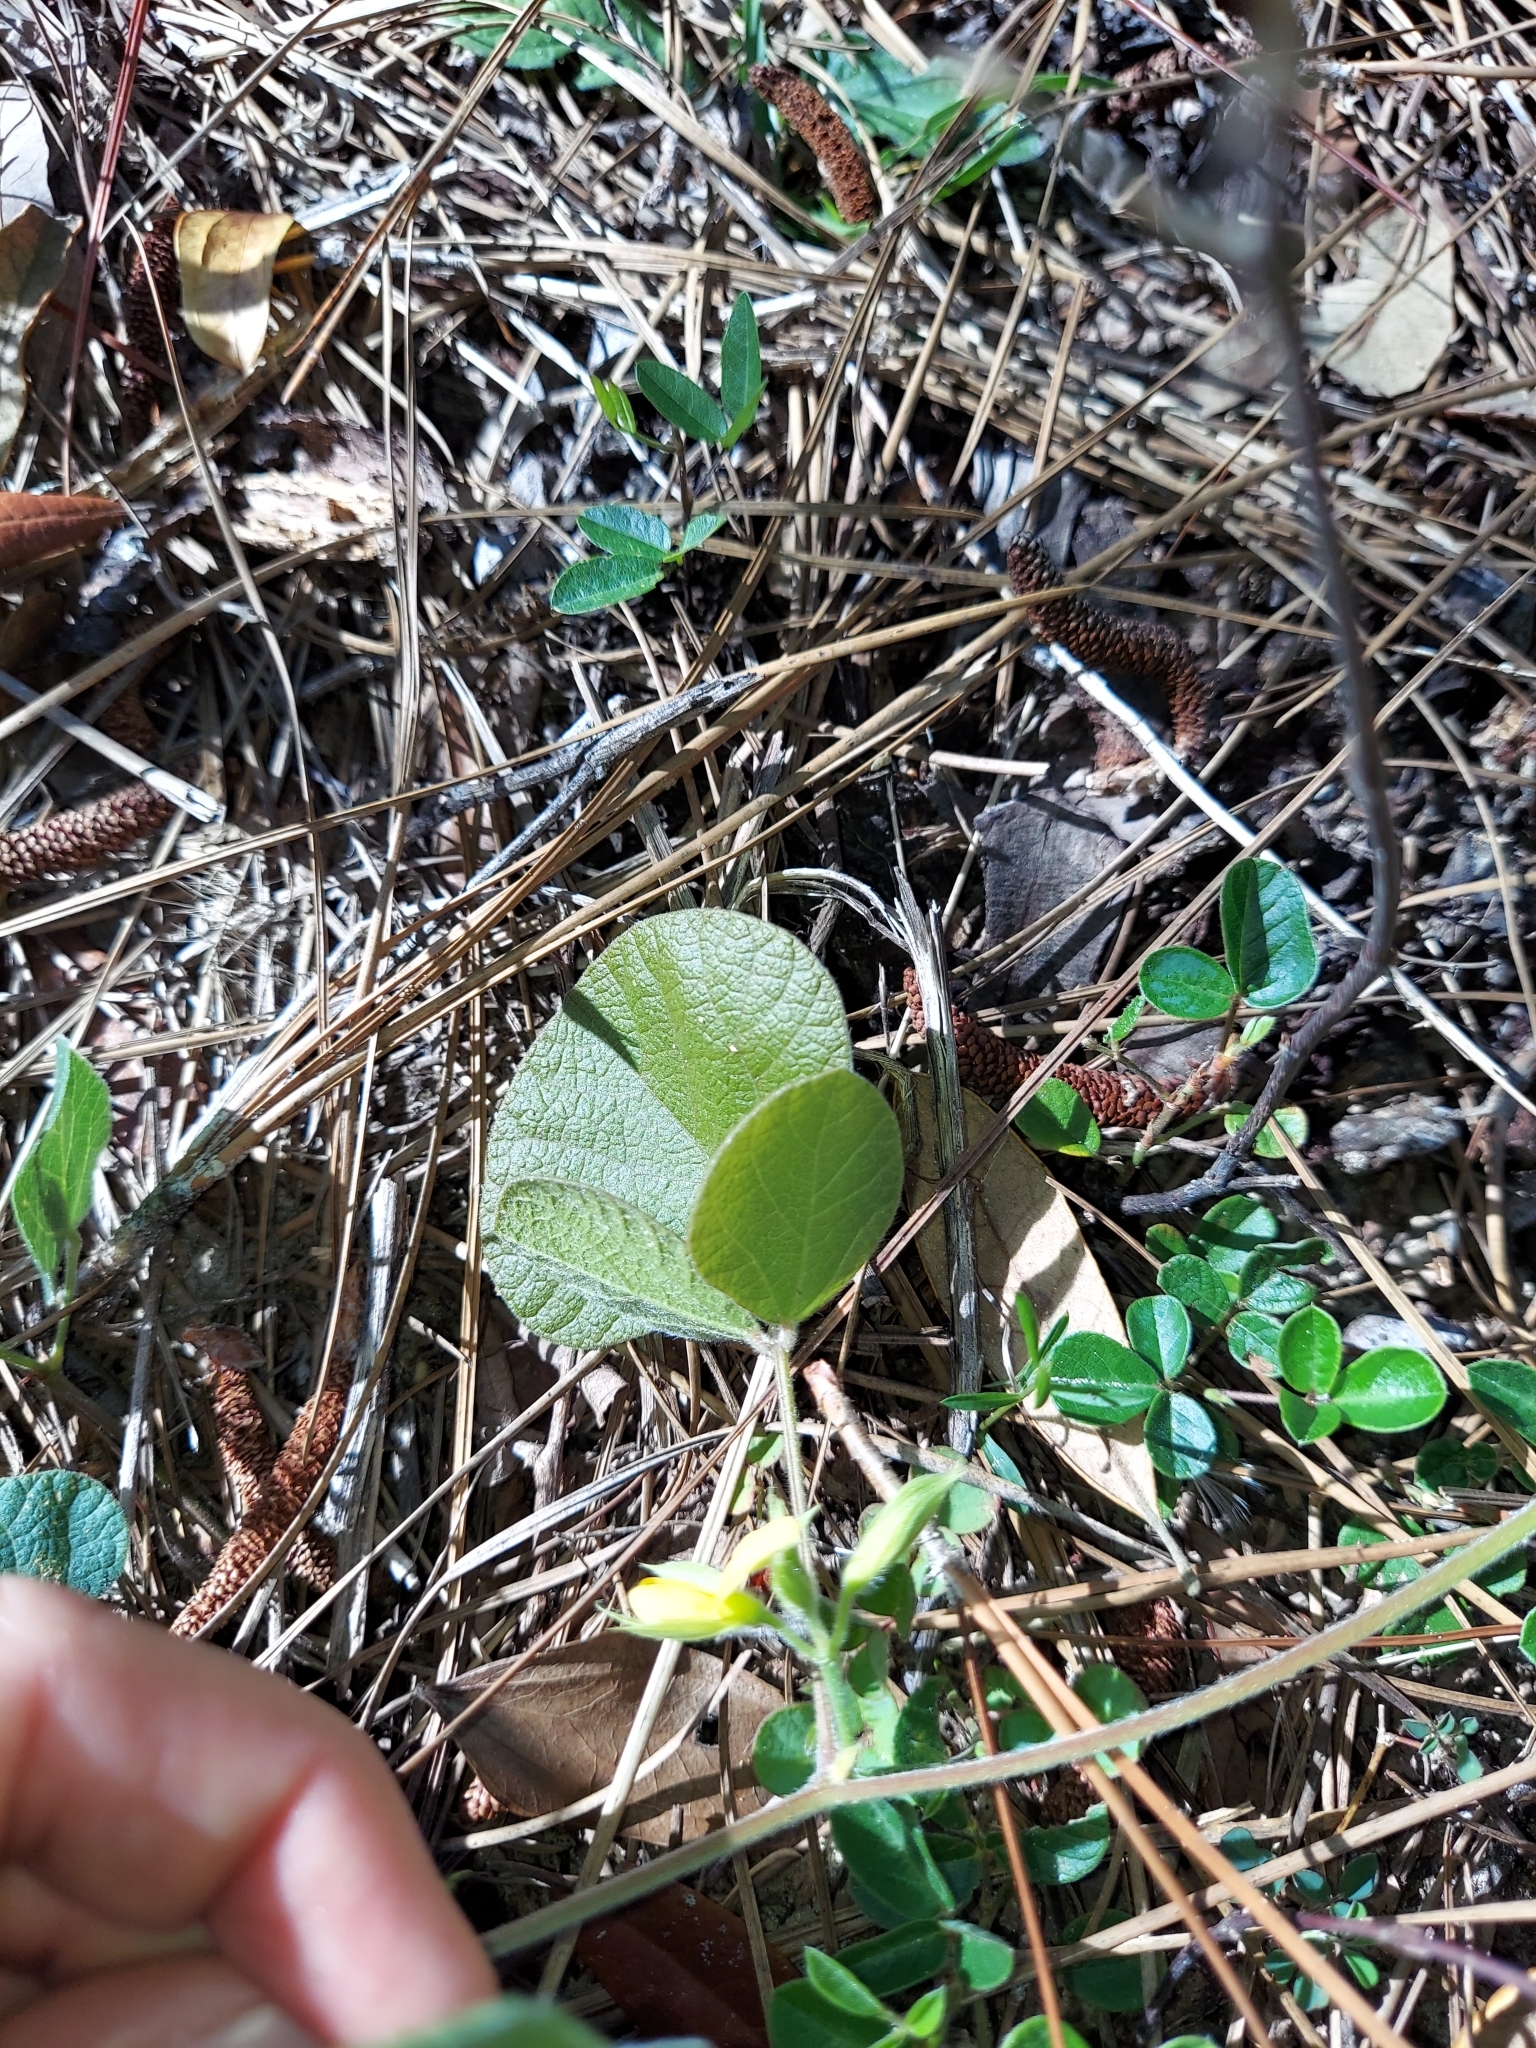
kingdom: Plantae
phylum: Tracheophyta
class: Magnoliopsida
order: Fabales
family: Fabaceae
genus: Rhynchosia
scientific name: Rhynchosia michauxii
